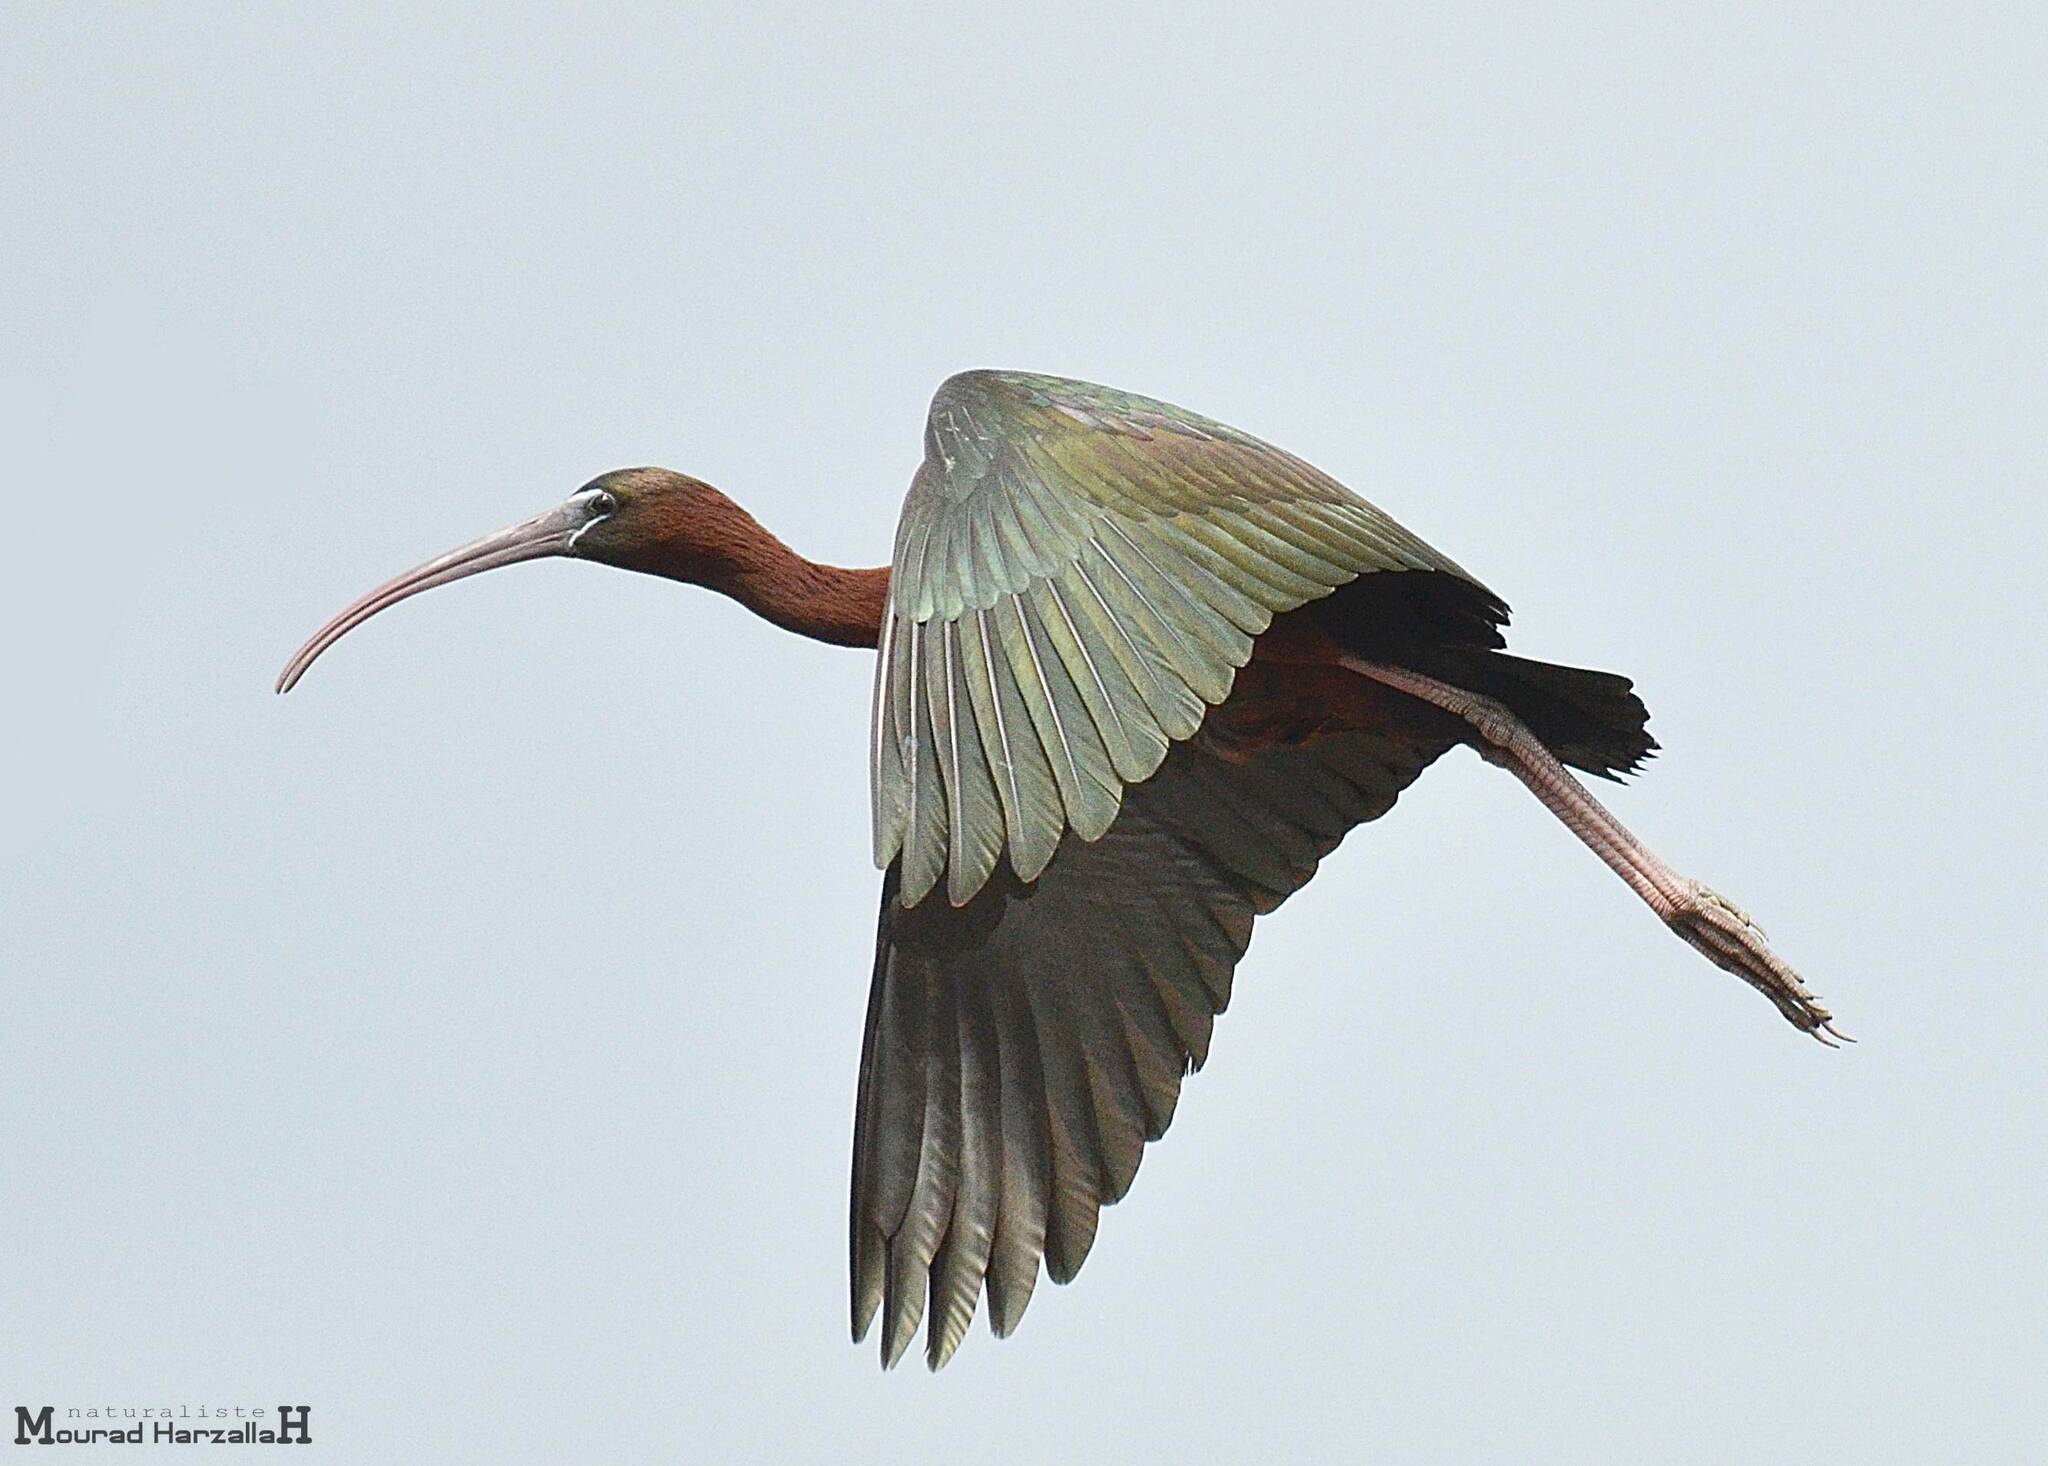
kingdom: Animalia
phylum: Chordata
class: Aves
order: Pelecaniformes
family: Threskiornithidae
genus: Plegadis
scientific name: Plegadis falcinellus
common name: Glossy ibis
